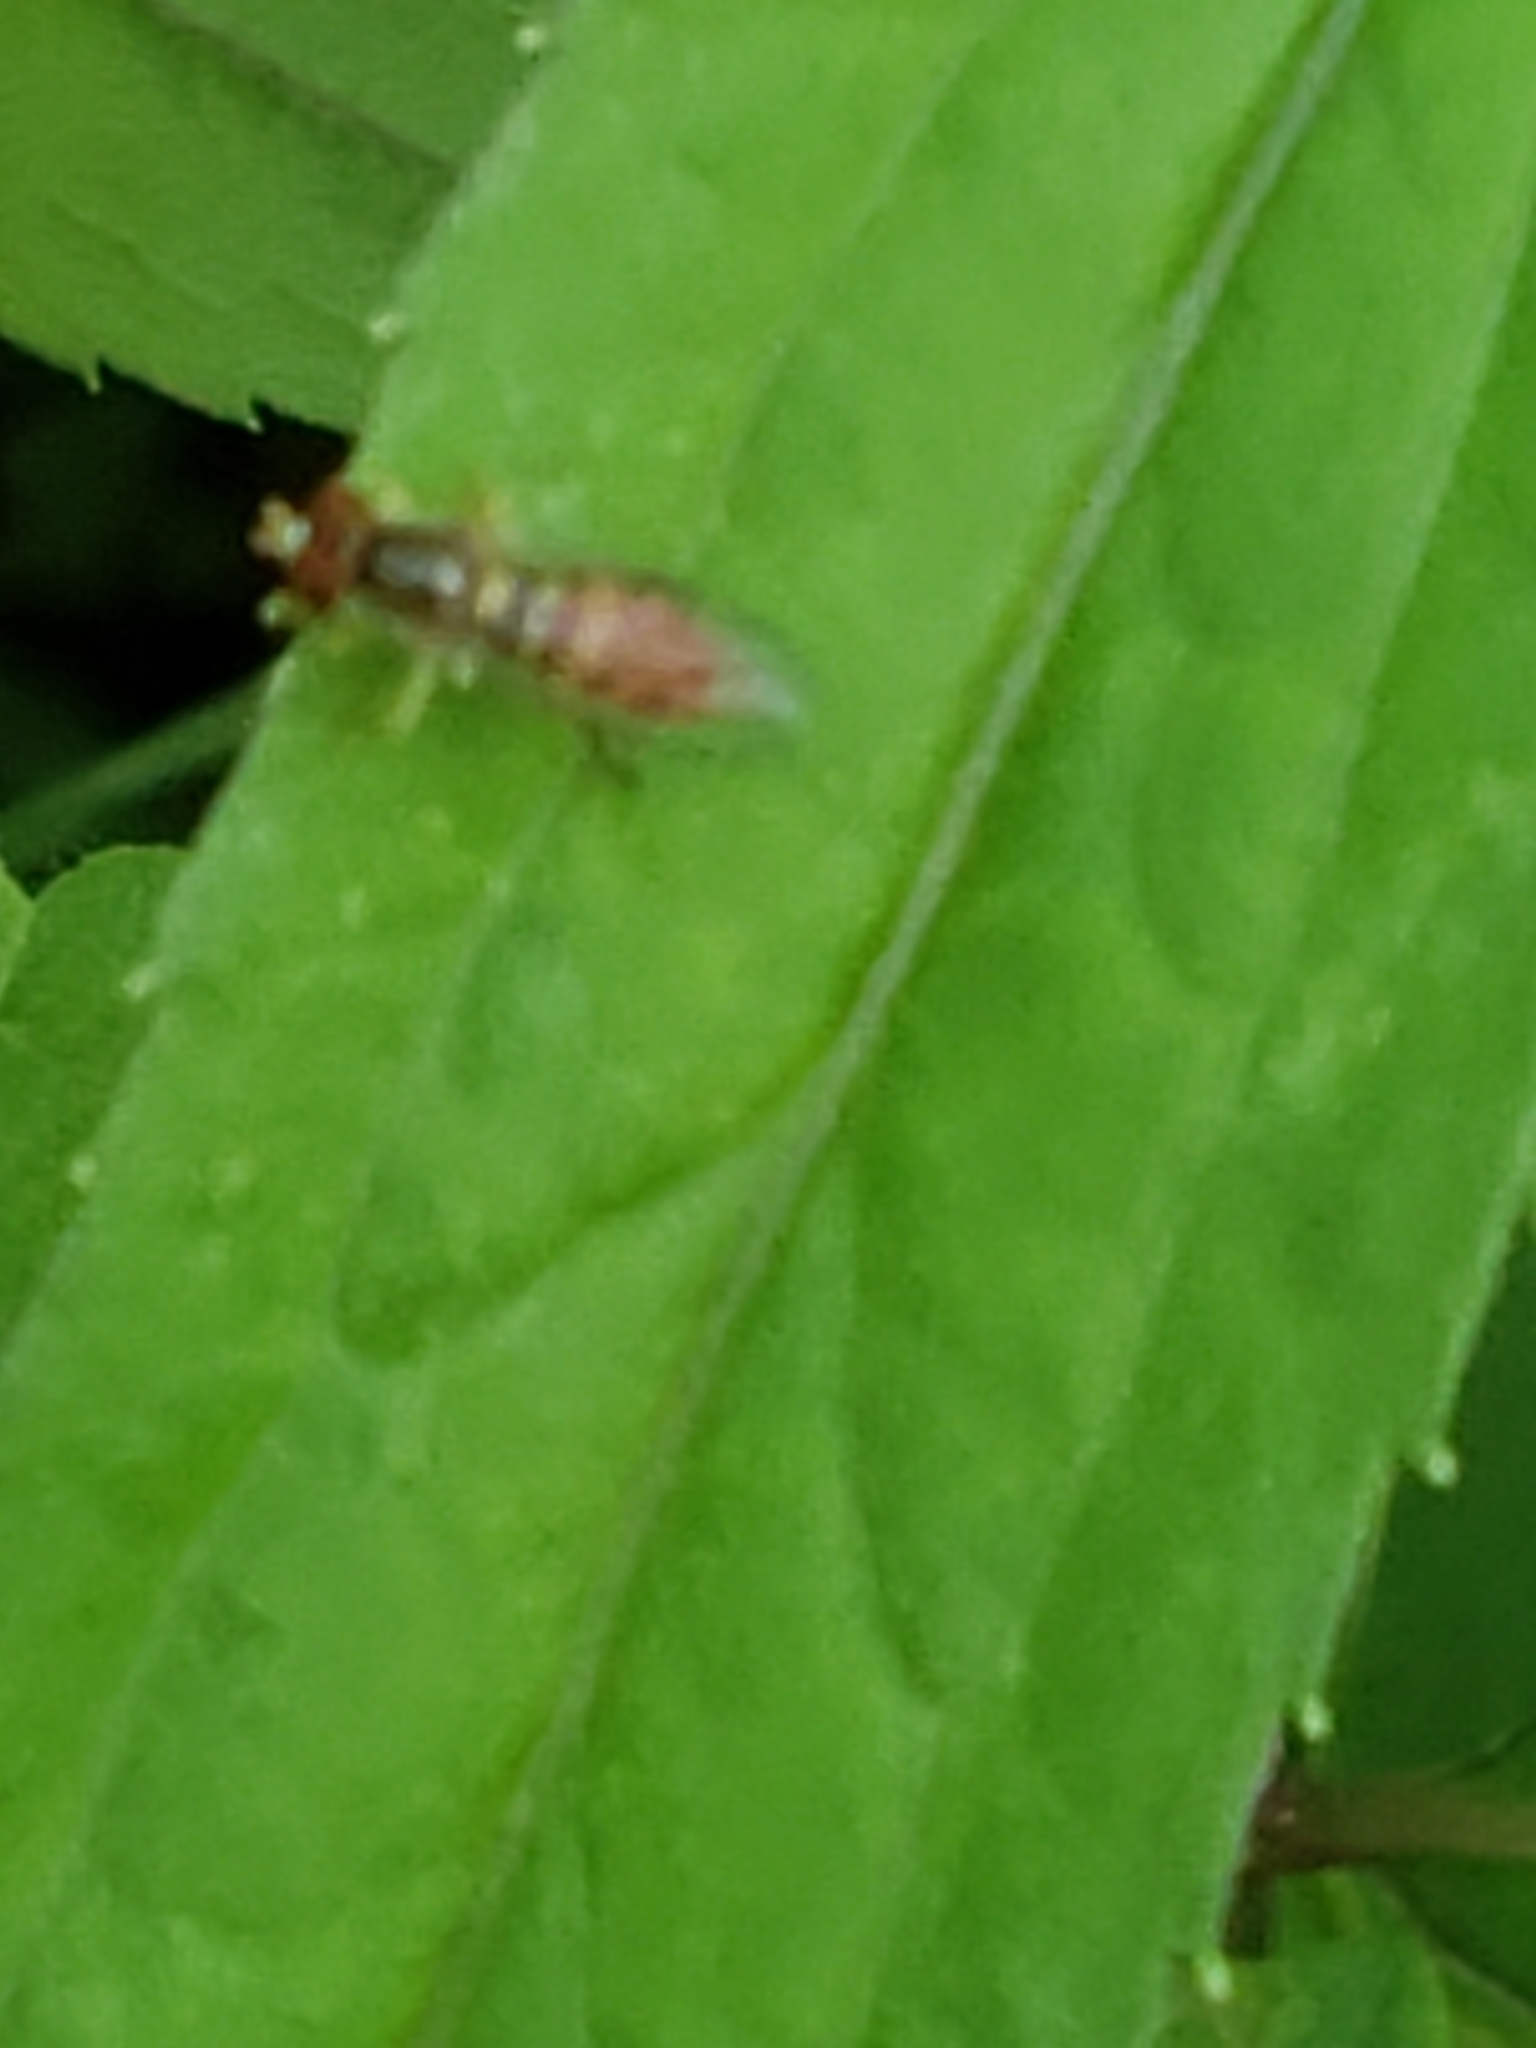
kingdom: Animalia
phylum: Arthropoda
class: Insecta
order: Diptera
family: Syrphidae
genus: Toxomerus
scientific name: Toxomerus marginatus
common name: Syrphid fly
